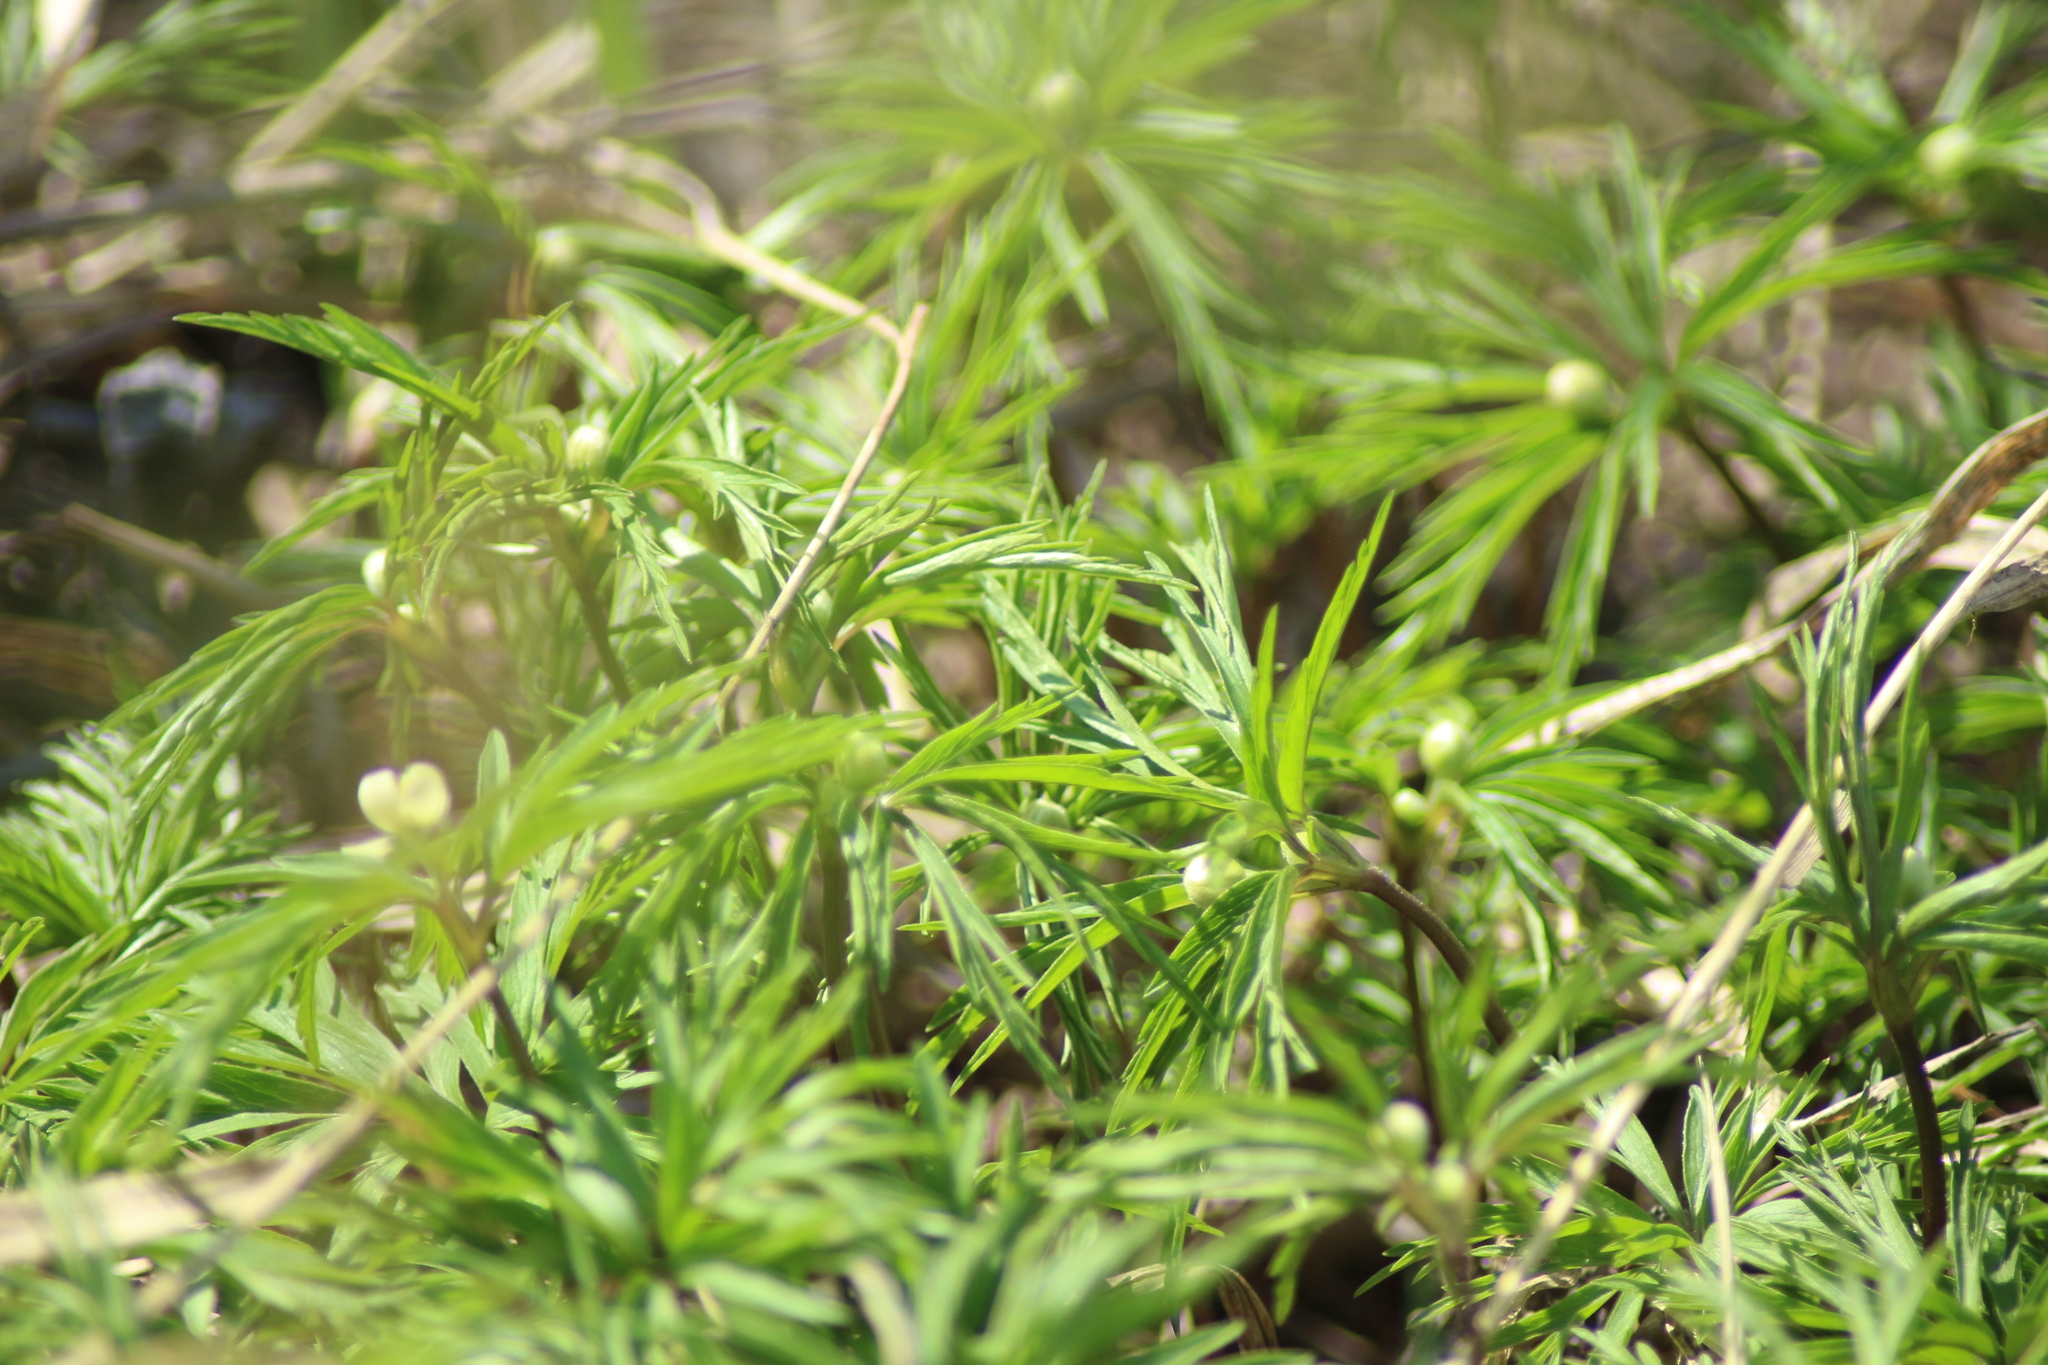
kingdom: Plantae
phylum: Tracheophyta
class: Magnoliopsida
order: Ranunculales
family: Ranunculaceae
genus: Anemone
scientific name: Anemone caerulea
